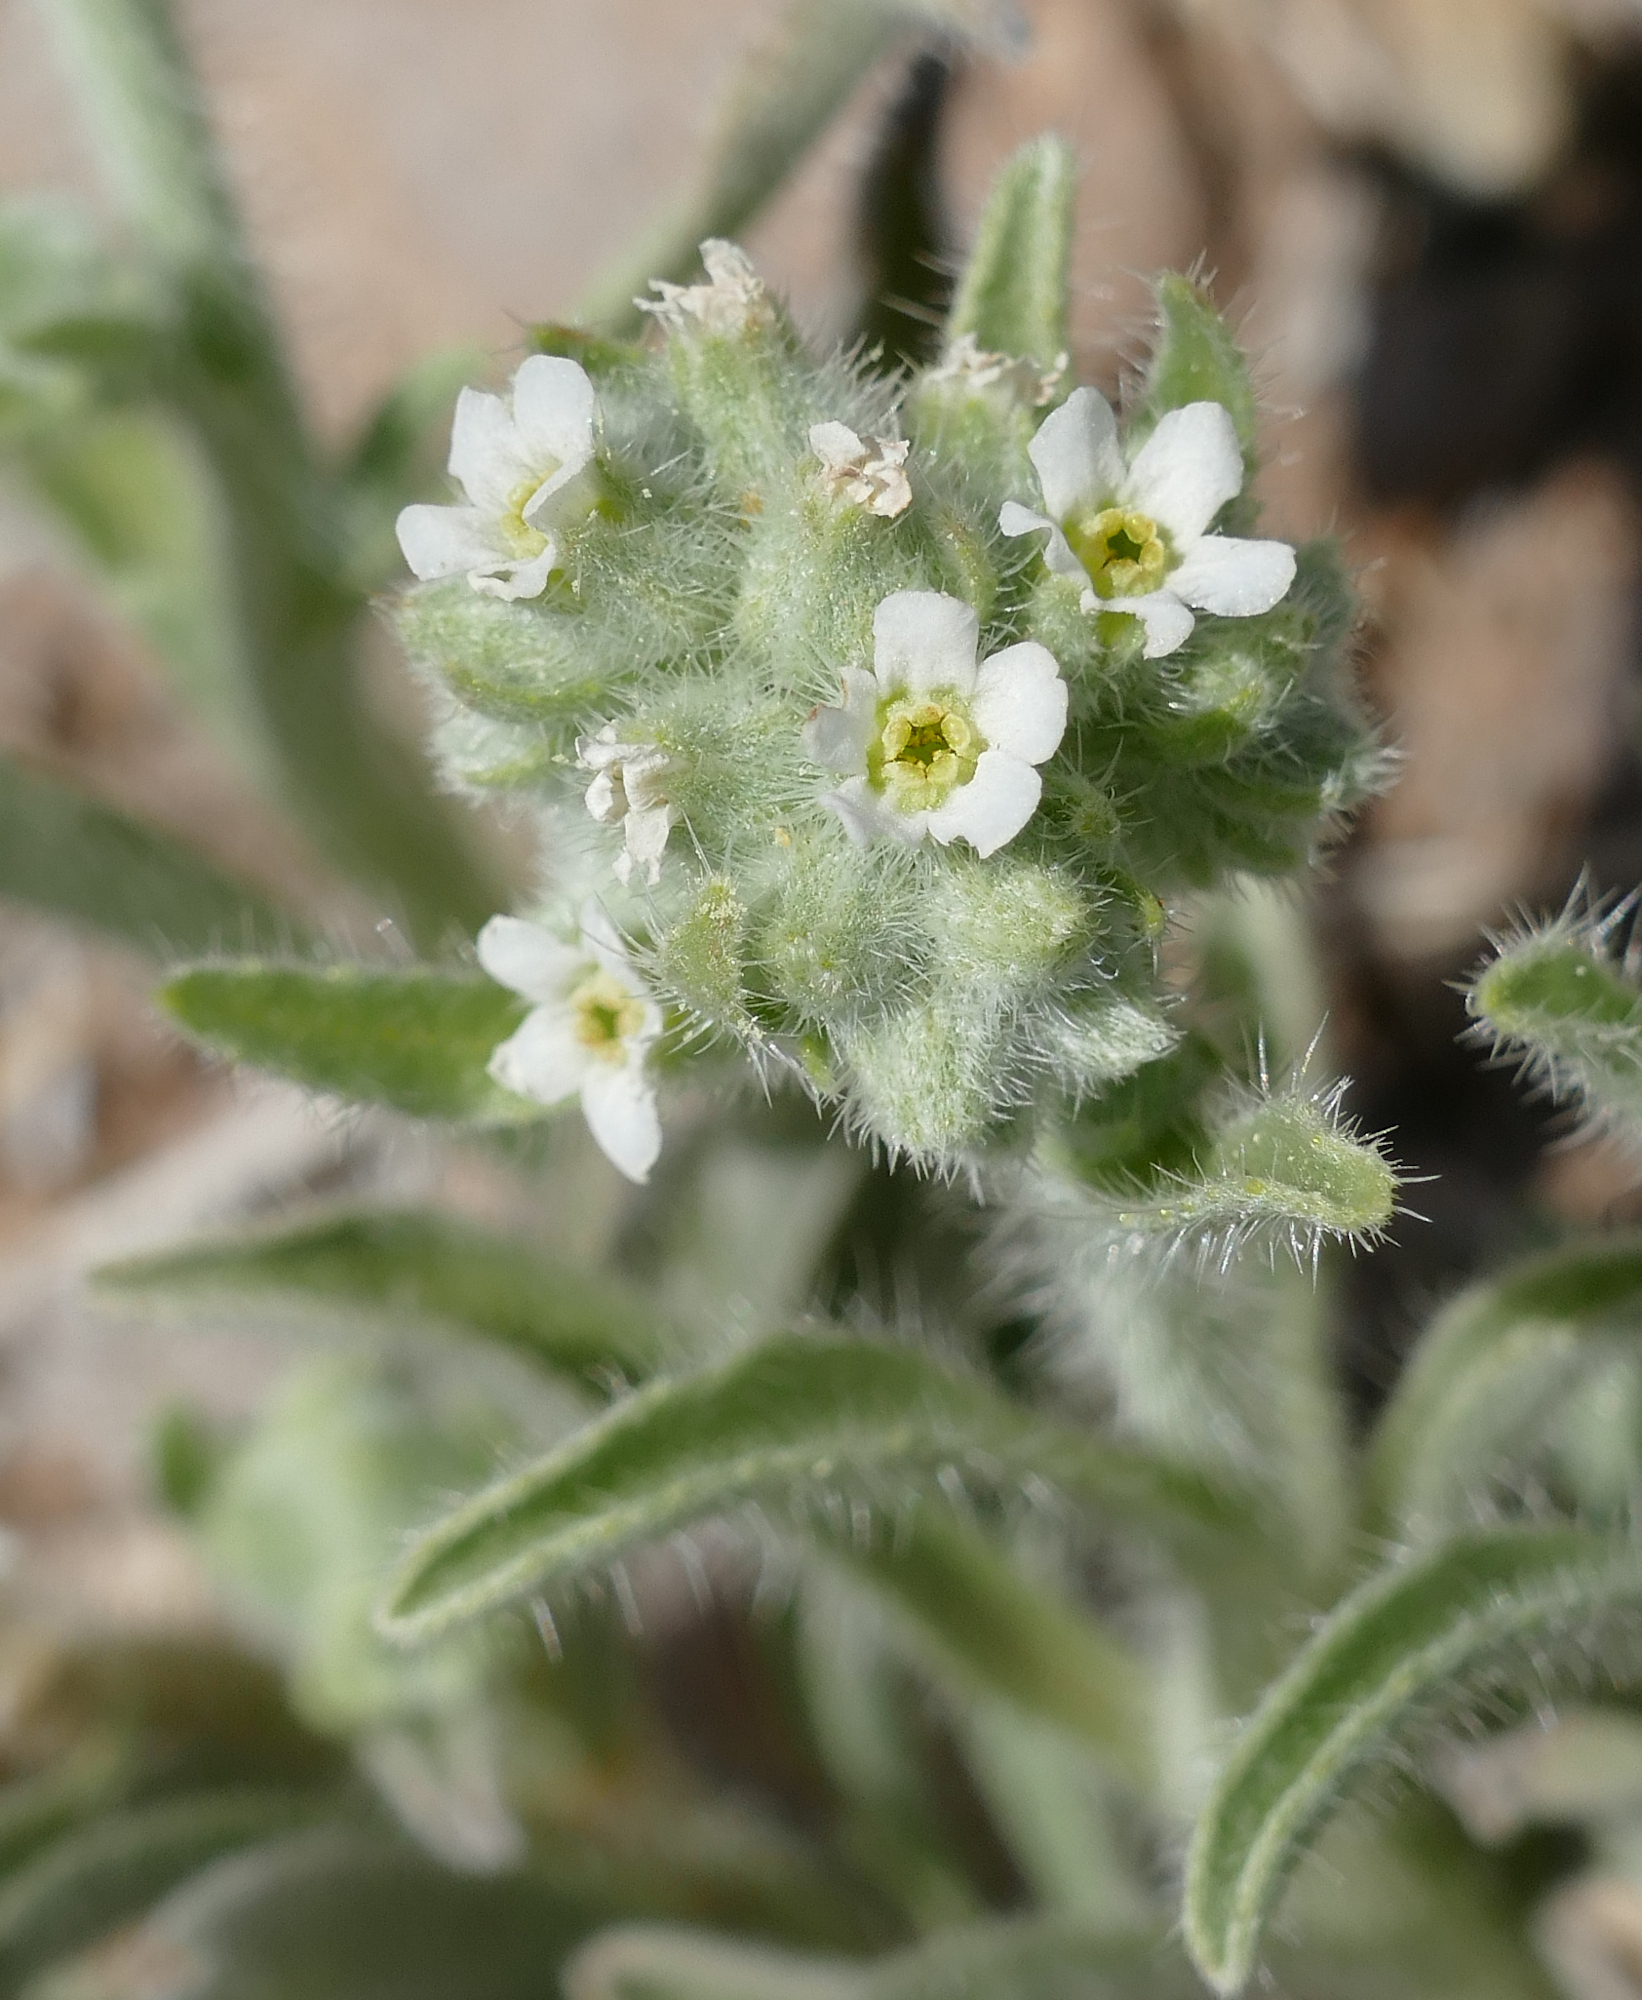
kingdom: Plantae
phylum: Tracheophyta
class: Magnoliopsida
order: Boraginales
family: Boraginaceae
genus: Oreocarya
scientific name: Oreocarya suffruticosa
